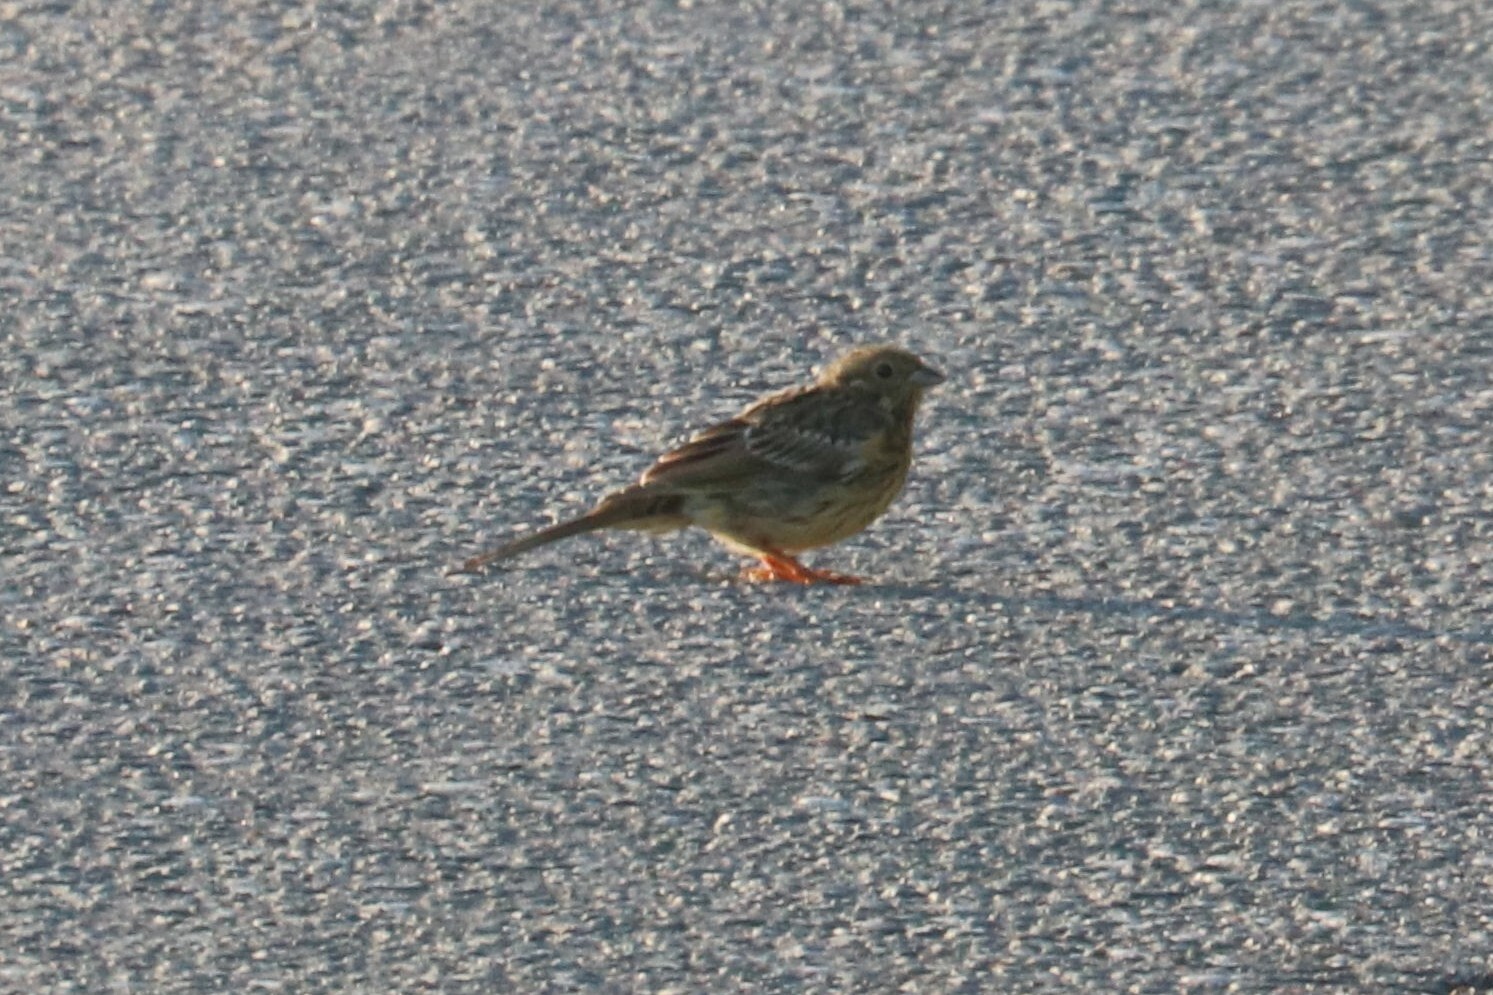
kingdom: Animalia
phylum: Chordata
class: Aves
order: Passeriformes
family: Emberizidae
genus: Emberiza
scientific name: Emberiza citrinella
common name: Yellowhammer
